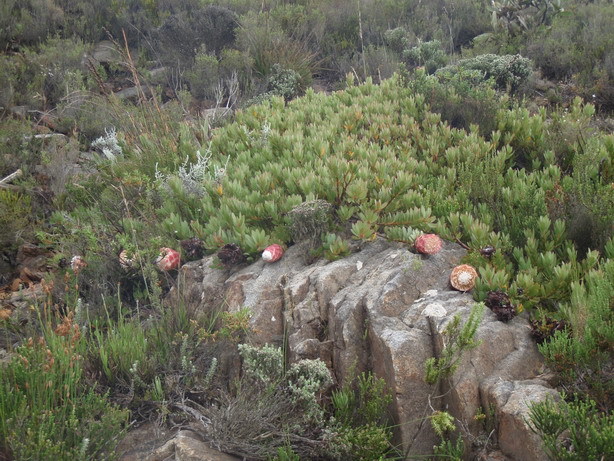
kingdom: Plantae
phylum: Tracheophyta
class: Magnoliopsida
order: Proteales
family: Proteaceae
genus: Protea
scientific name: Protea venusta
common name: Cascade sugarbush
